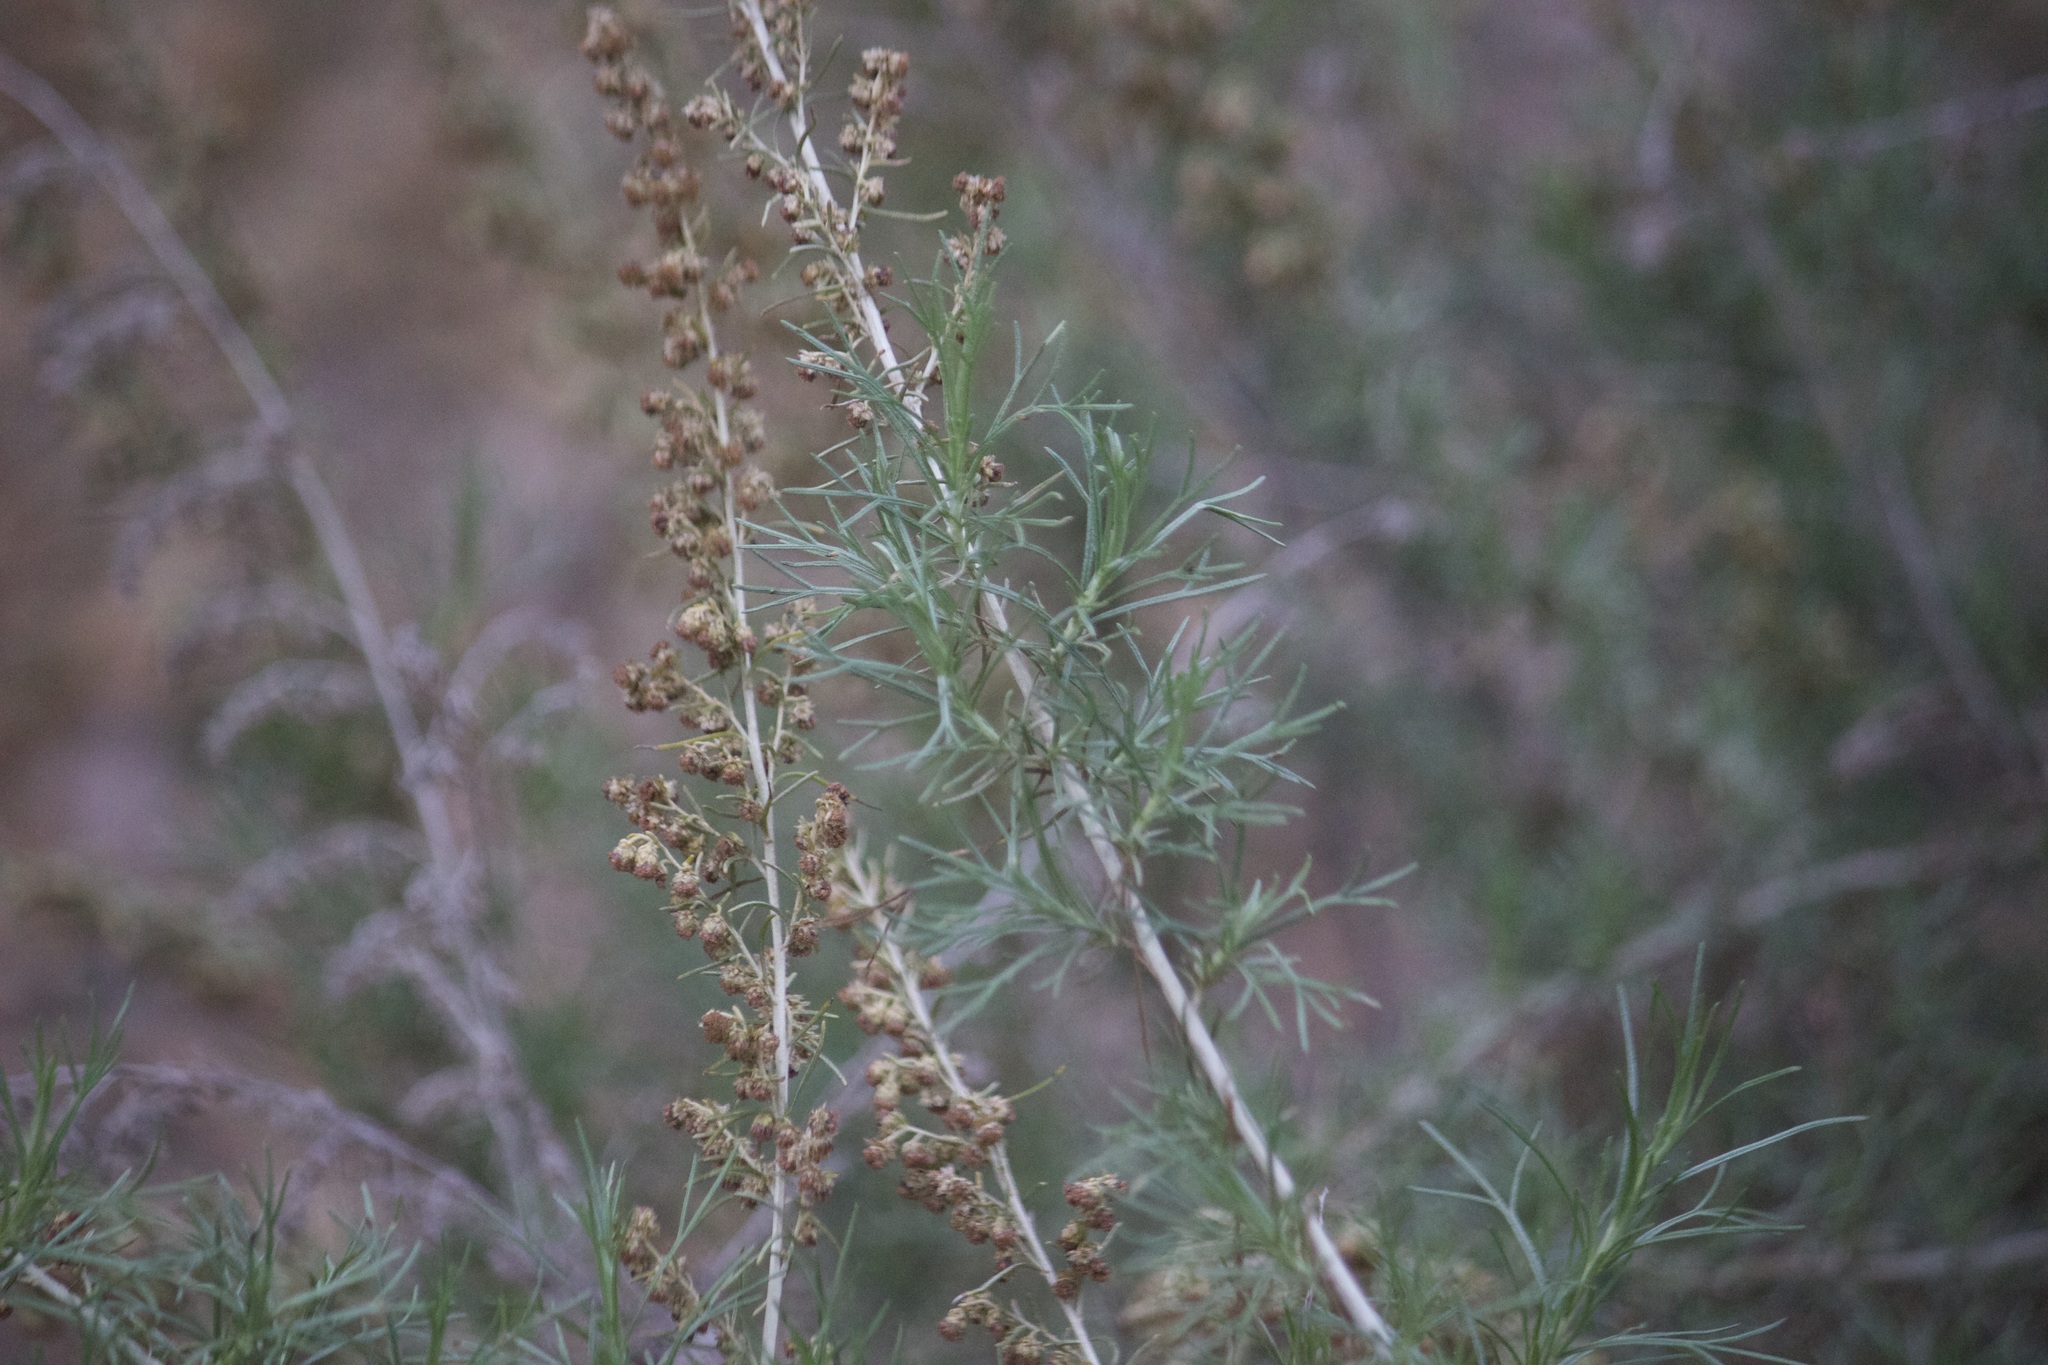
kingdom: Plantae
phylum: Tracheophyta
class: Magnoliopsida
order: Asterales
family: Asteraceae
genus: Artemisia
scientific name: Artemisia californica
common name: California sagebrush
